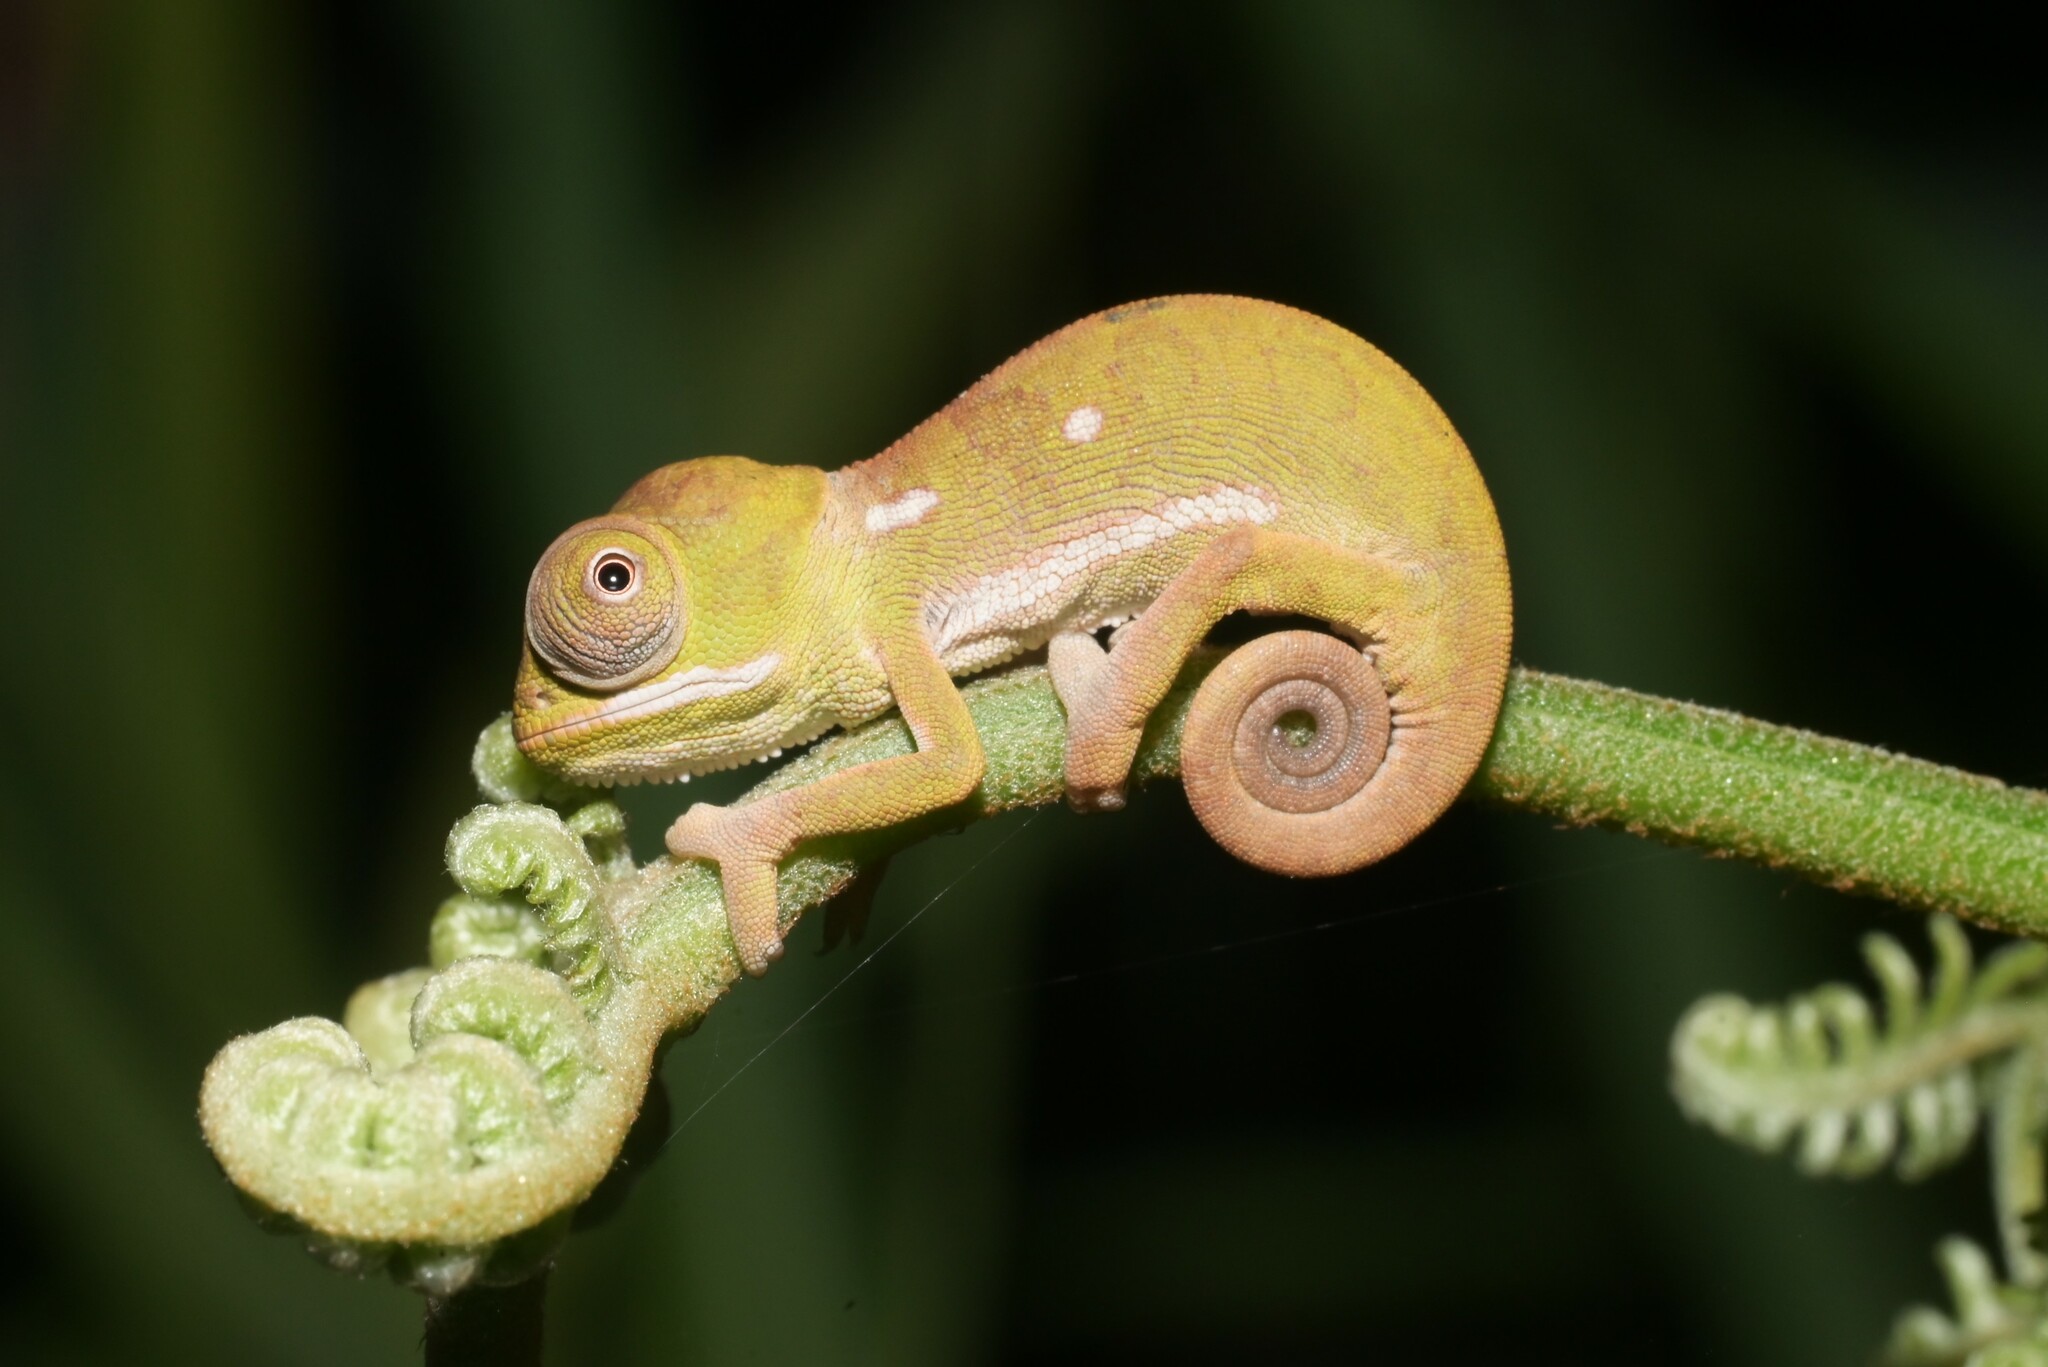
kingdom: Animalia
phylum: Chordata
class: Squamata
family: Chamaeleonidae
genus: Chamaeleo
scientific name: Chamaeleo dilepis
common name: Flapneck chameleon
